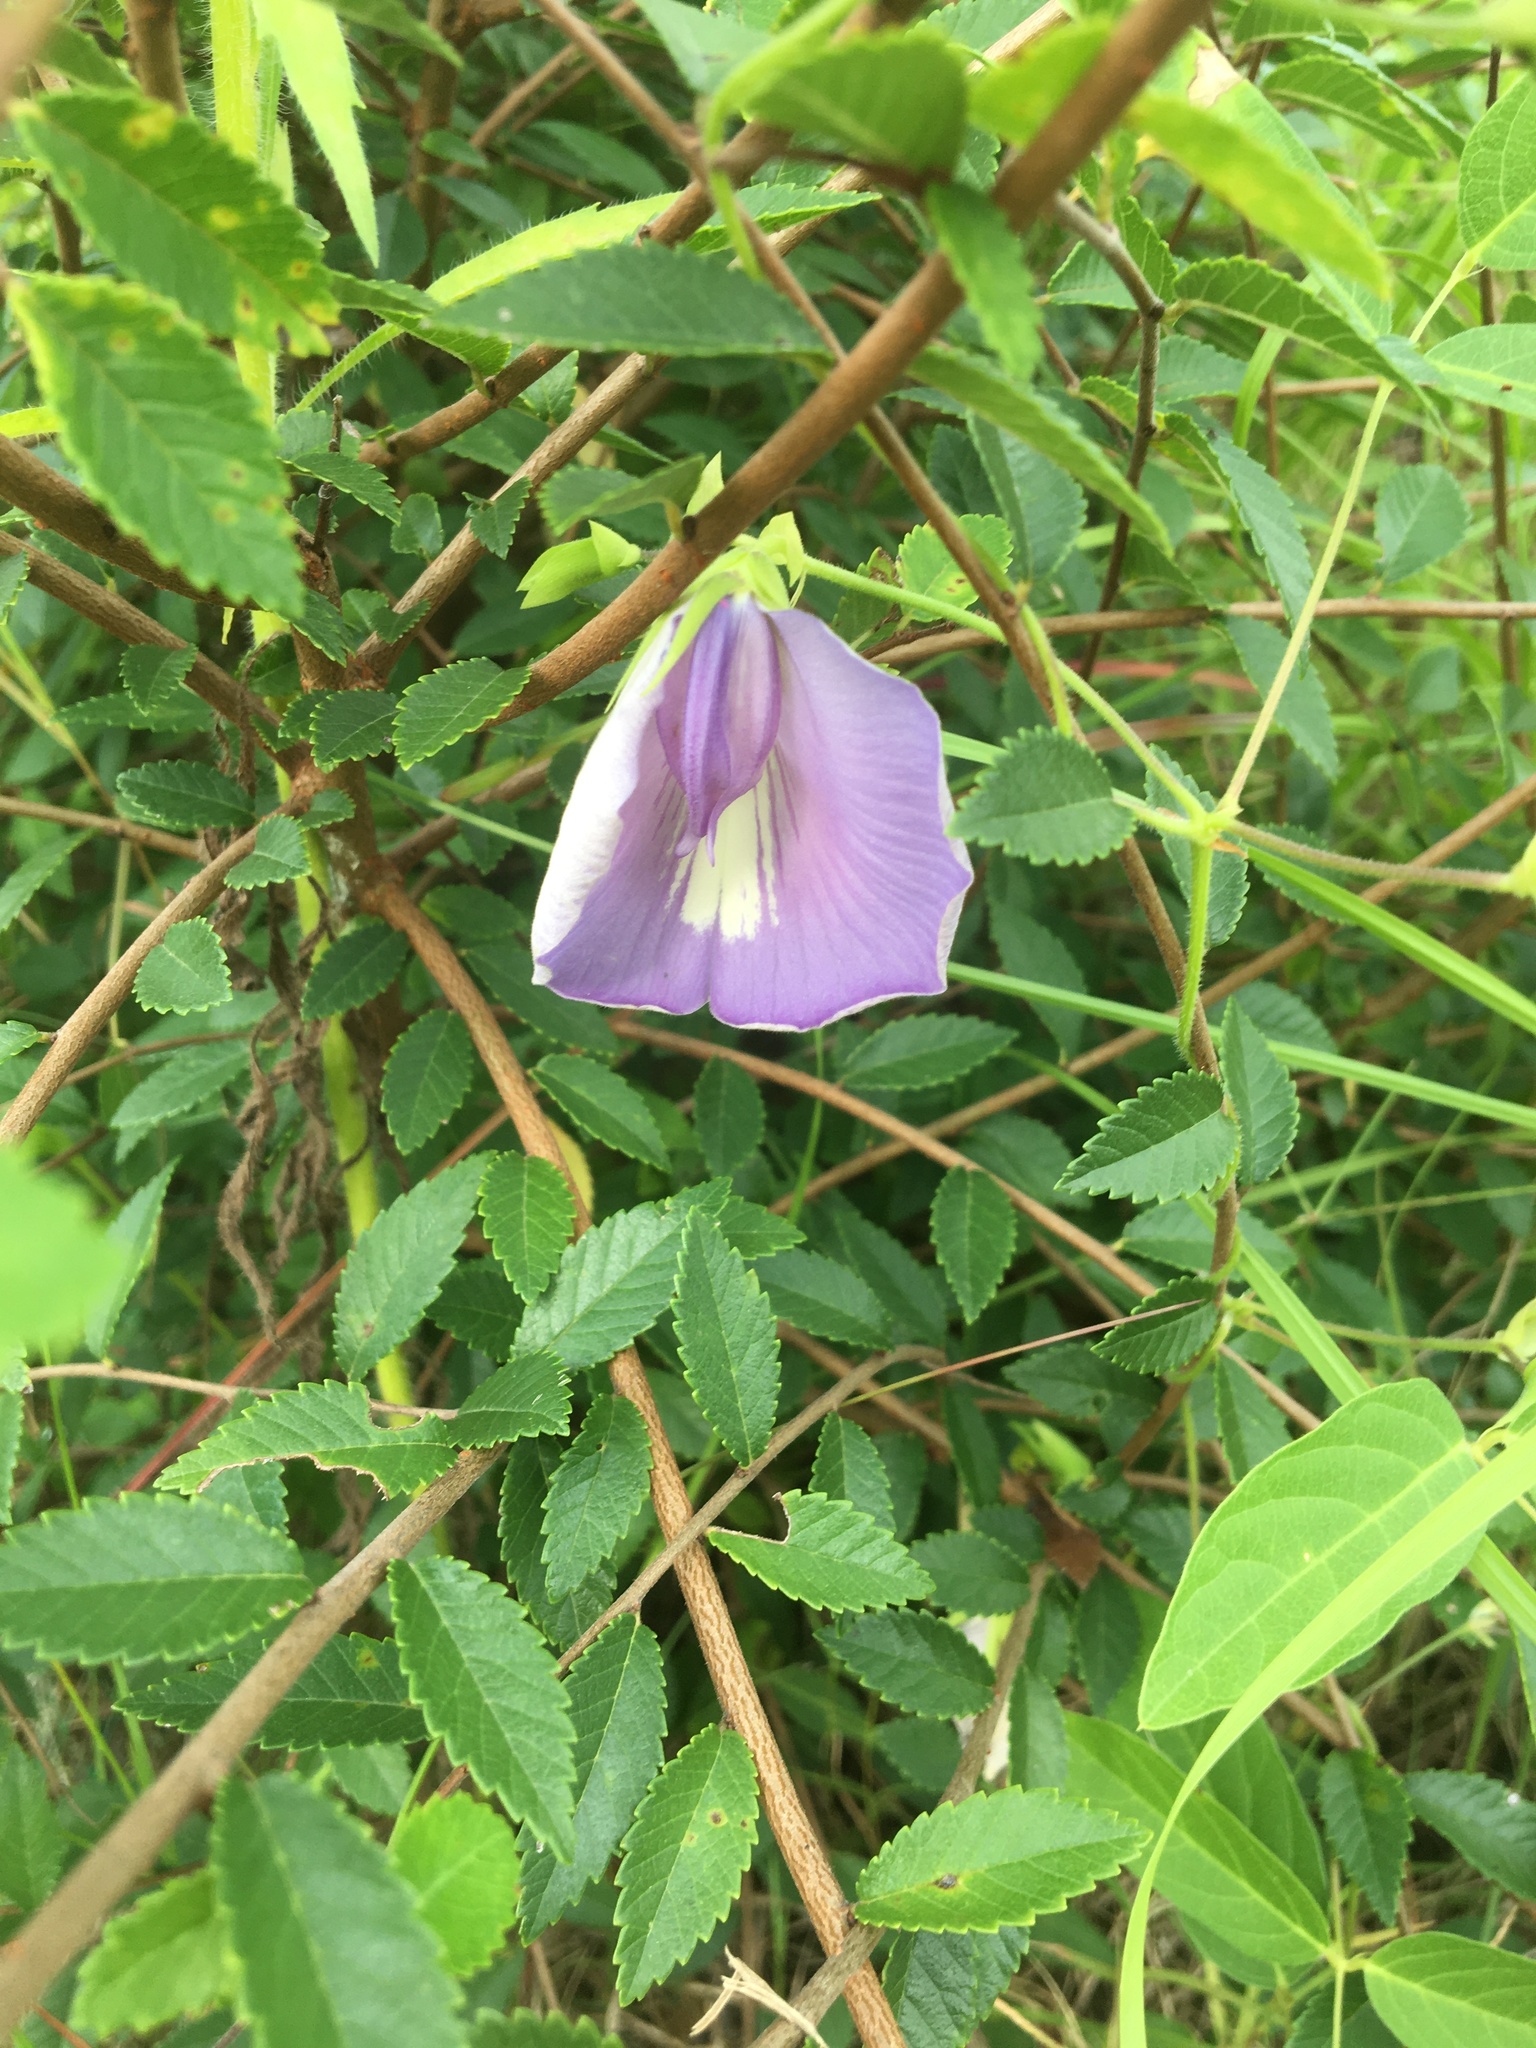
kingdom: Plantae
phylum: Tracheophyta
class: Magnoliopsida
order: Fabales
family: Fabaceae
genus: Centrosema
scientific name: Centrosema virginianum
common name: Butterfly-pea
